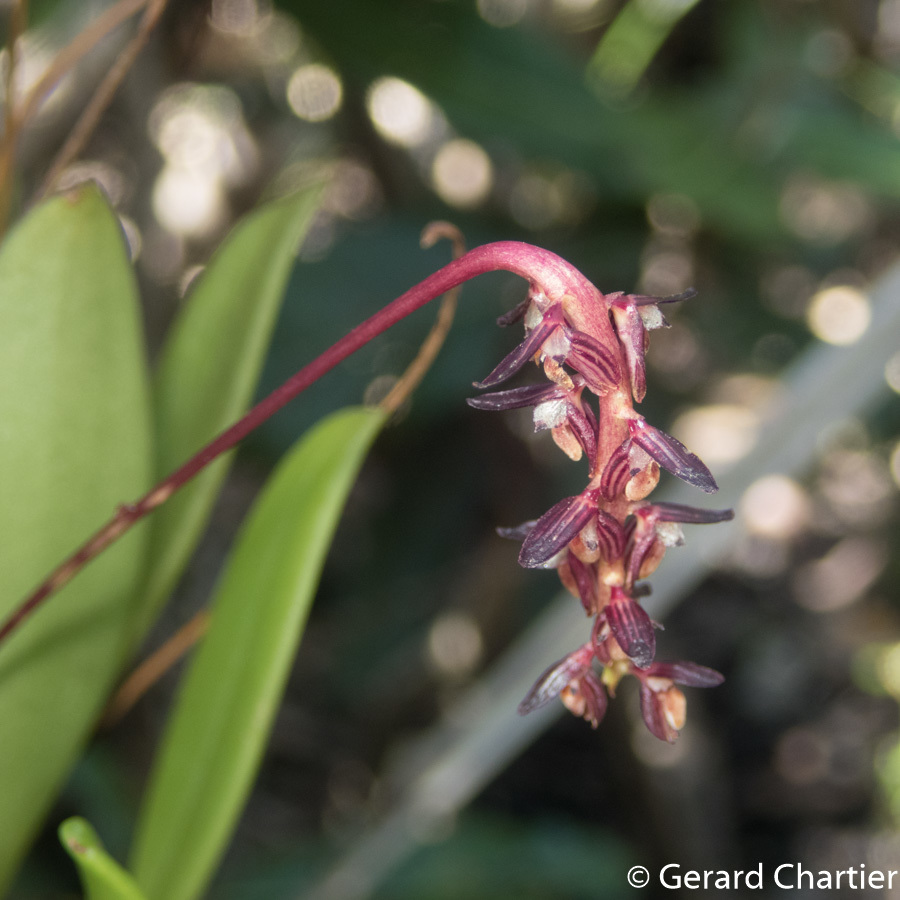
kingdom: Plantae
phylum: Tracheophyta
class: Liliopsida
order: Asparagales
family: Orchidaceae
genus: Bulbophyllum
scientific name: Bulbophyllum alcicorne
